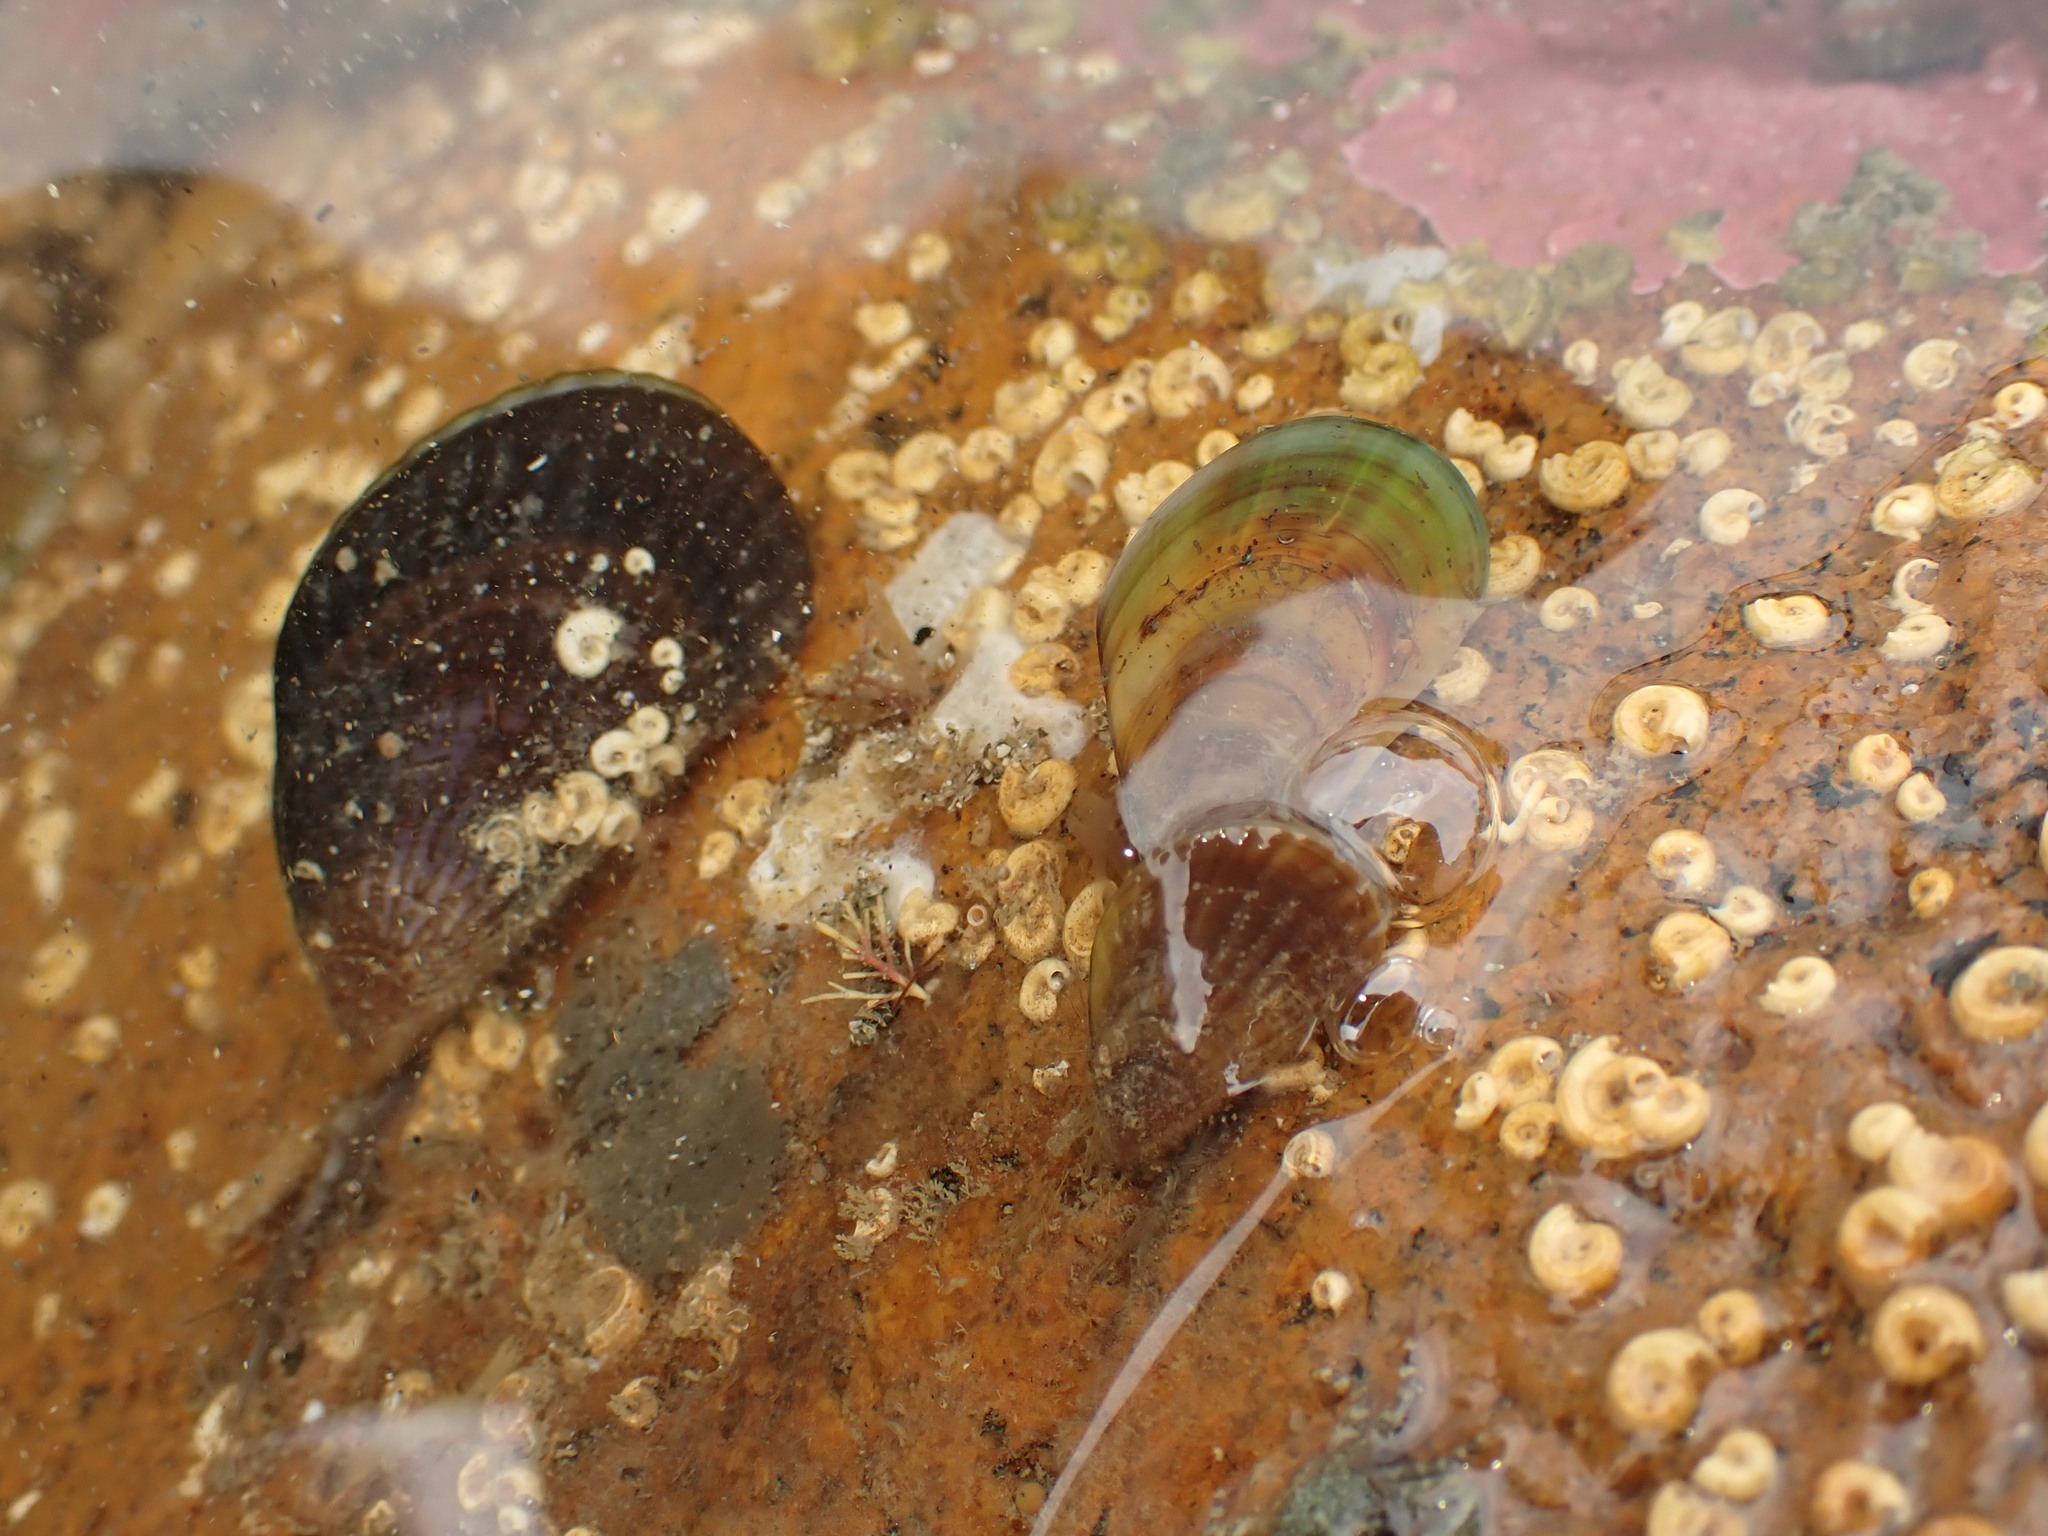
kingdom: Animalia
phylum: Mollusca
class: Bivalvia
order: Mytilida
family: Mytilidae
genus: Perna
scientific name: Perna canaliculus
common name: New zealand greenshelltm
